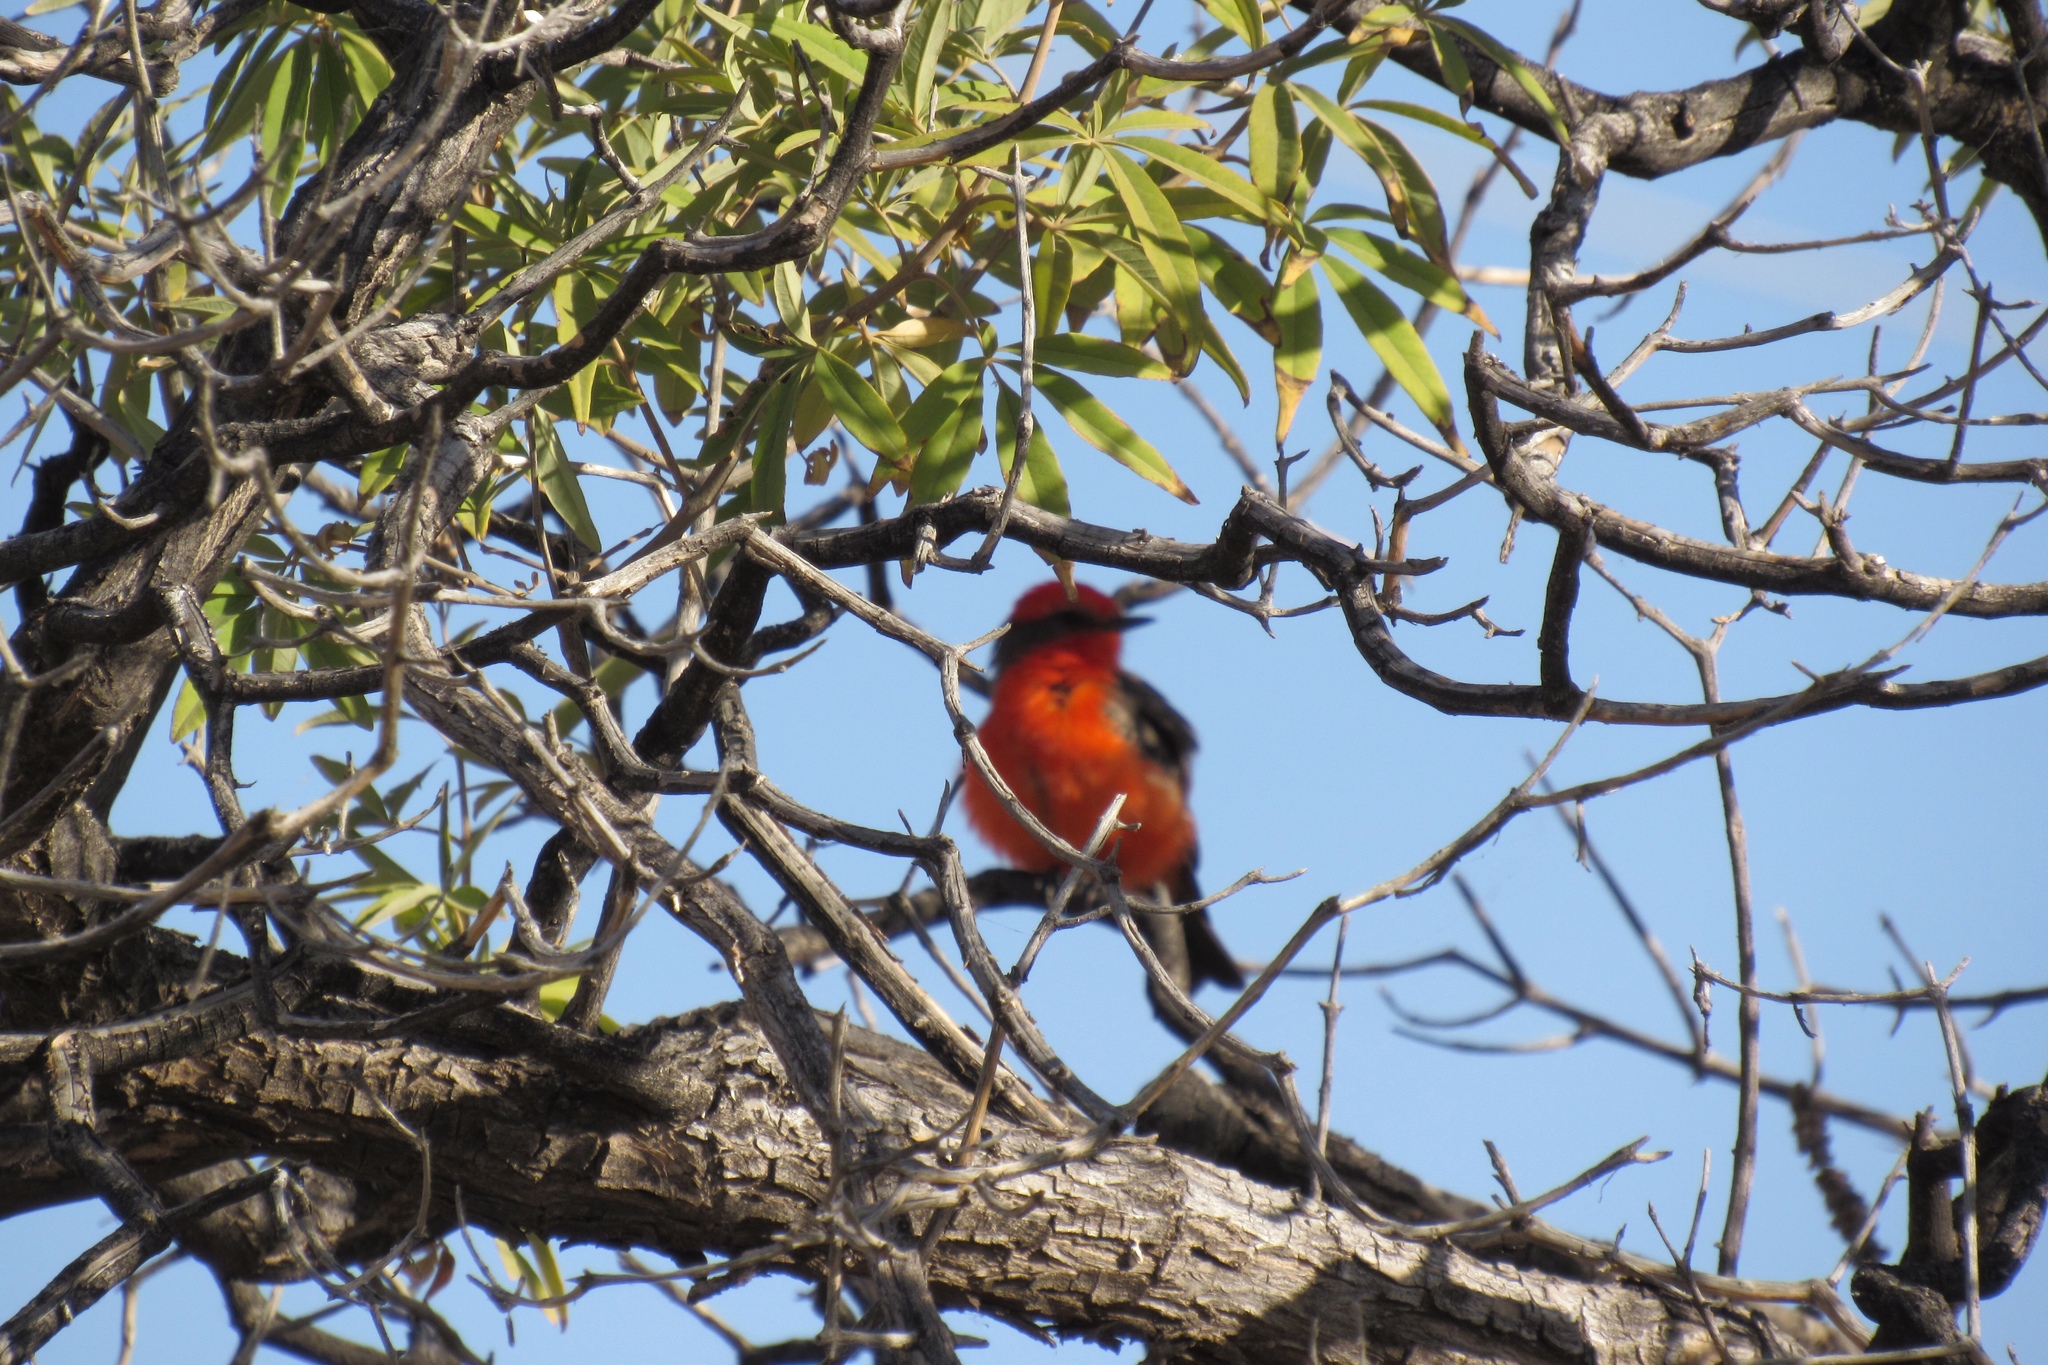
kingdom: Animalia
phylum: Chordata
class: Aves
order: Passeriformes
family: Tyrannidae
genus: Pyrocephalus
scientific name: Pyrocephalus rubinus
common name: Vermilion flycatcher
